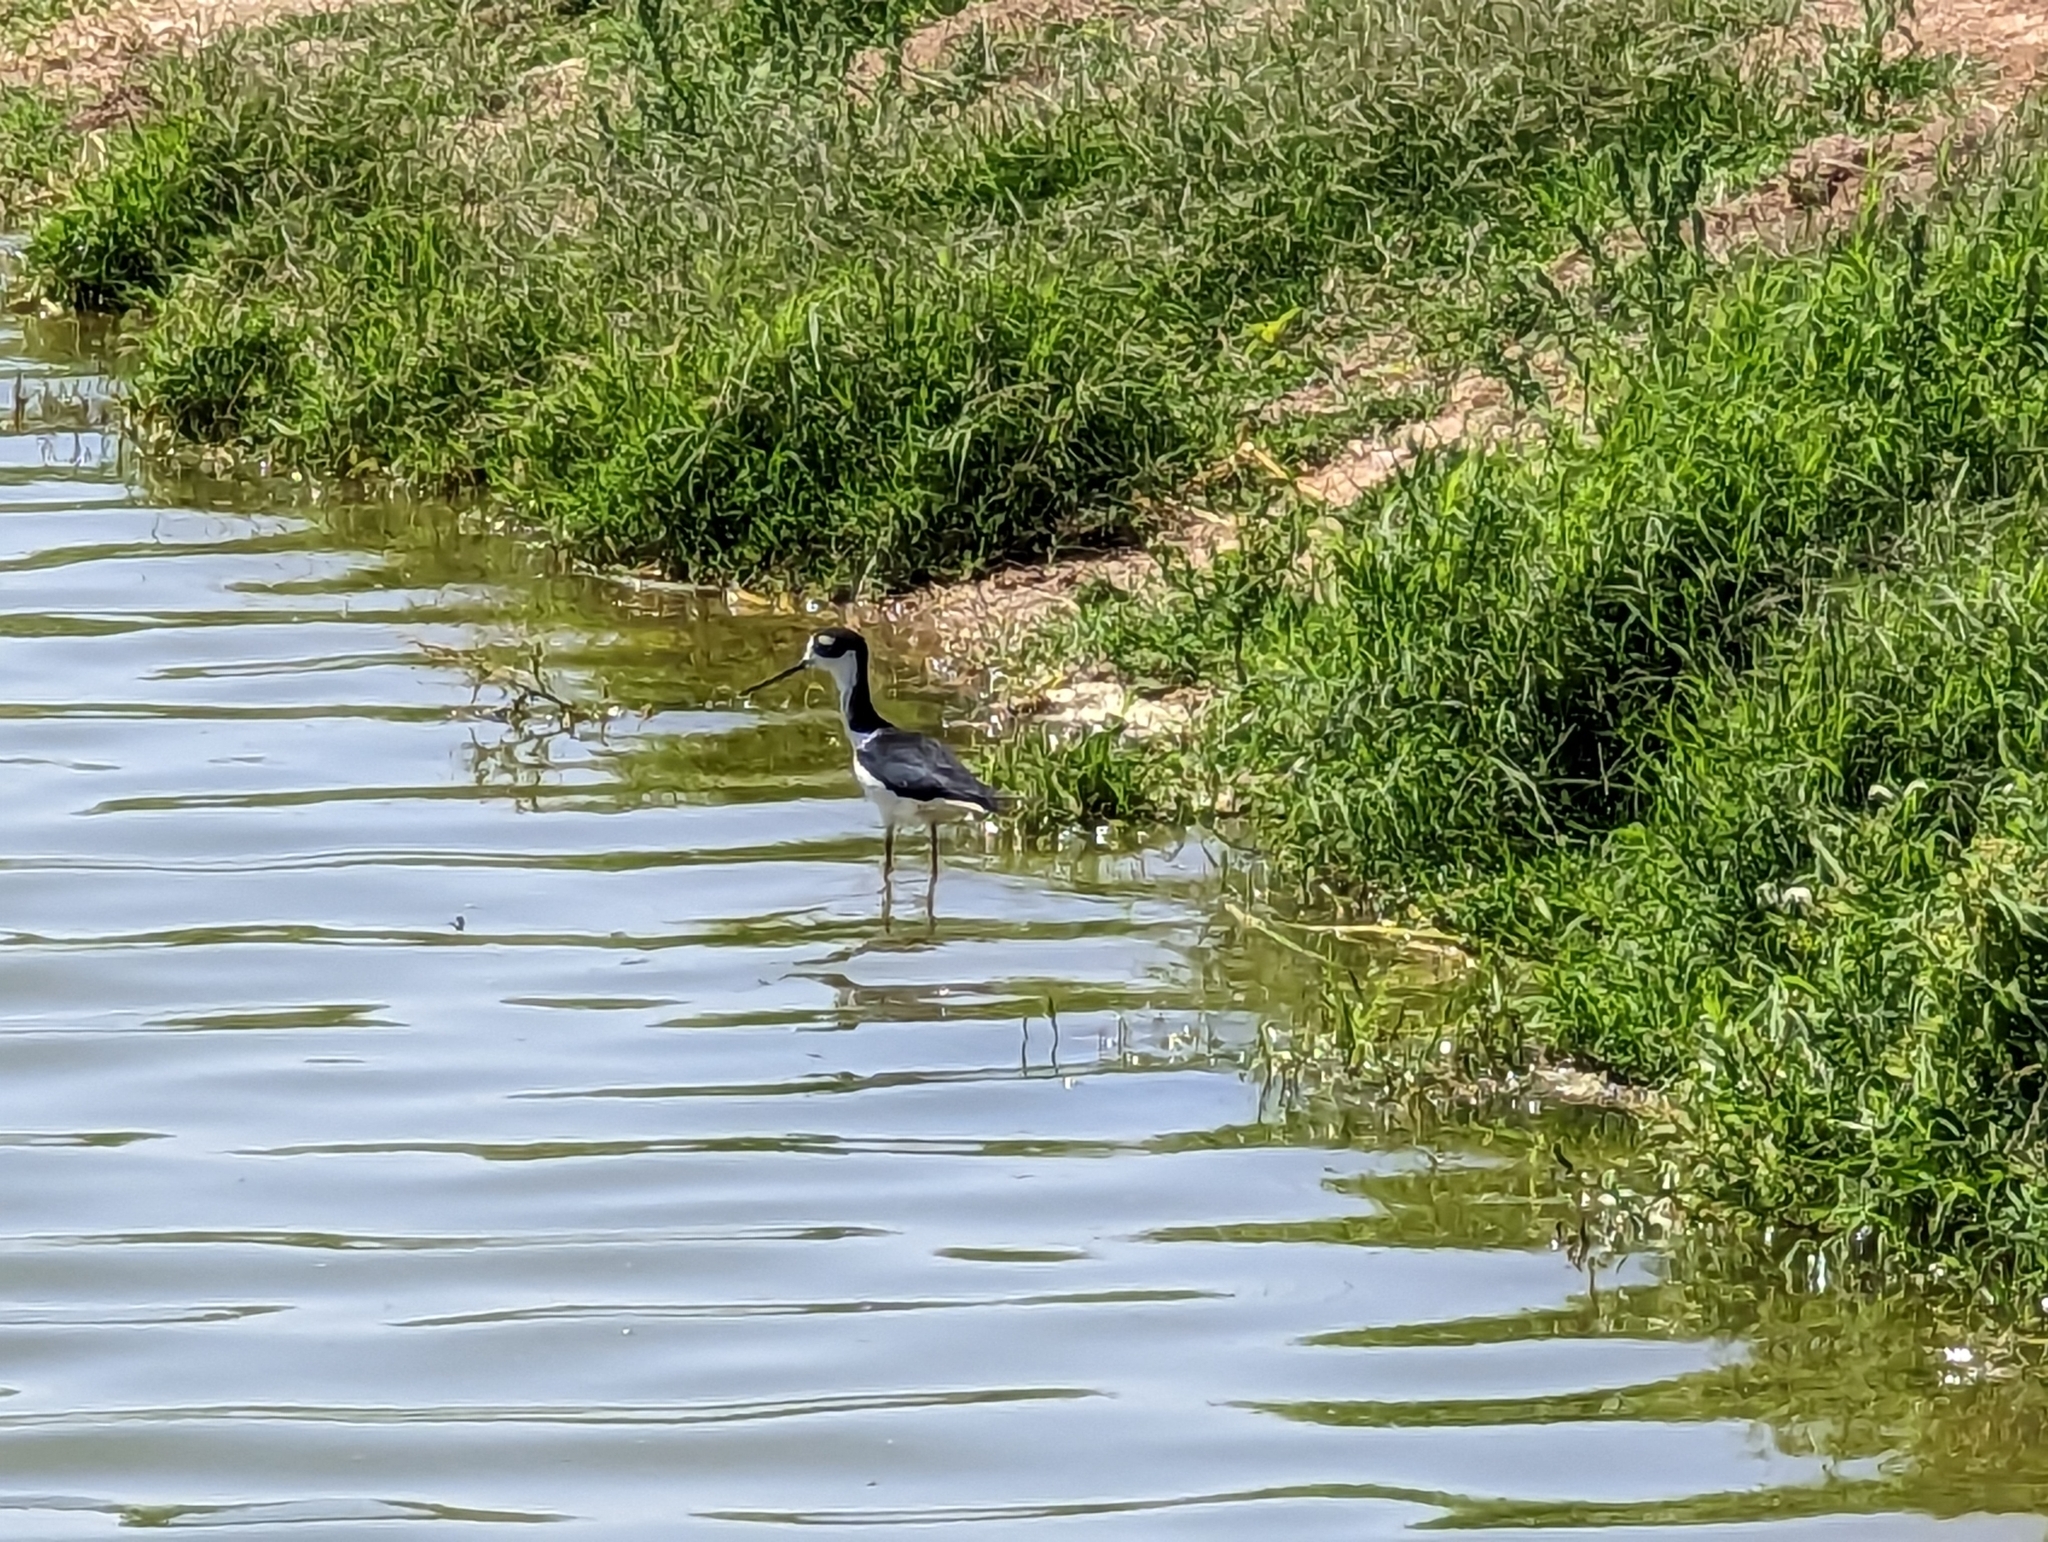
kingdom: Animalia
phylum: Chordata
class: Aves
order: Charadriiformes
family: Recurvirostridae
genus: Himantopus
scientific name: Himantopus mexicanus
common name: Black-necked stilt
